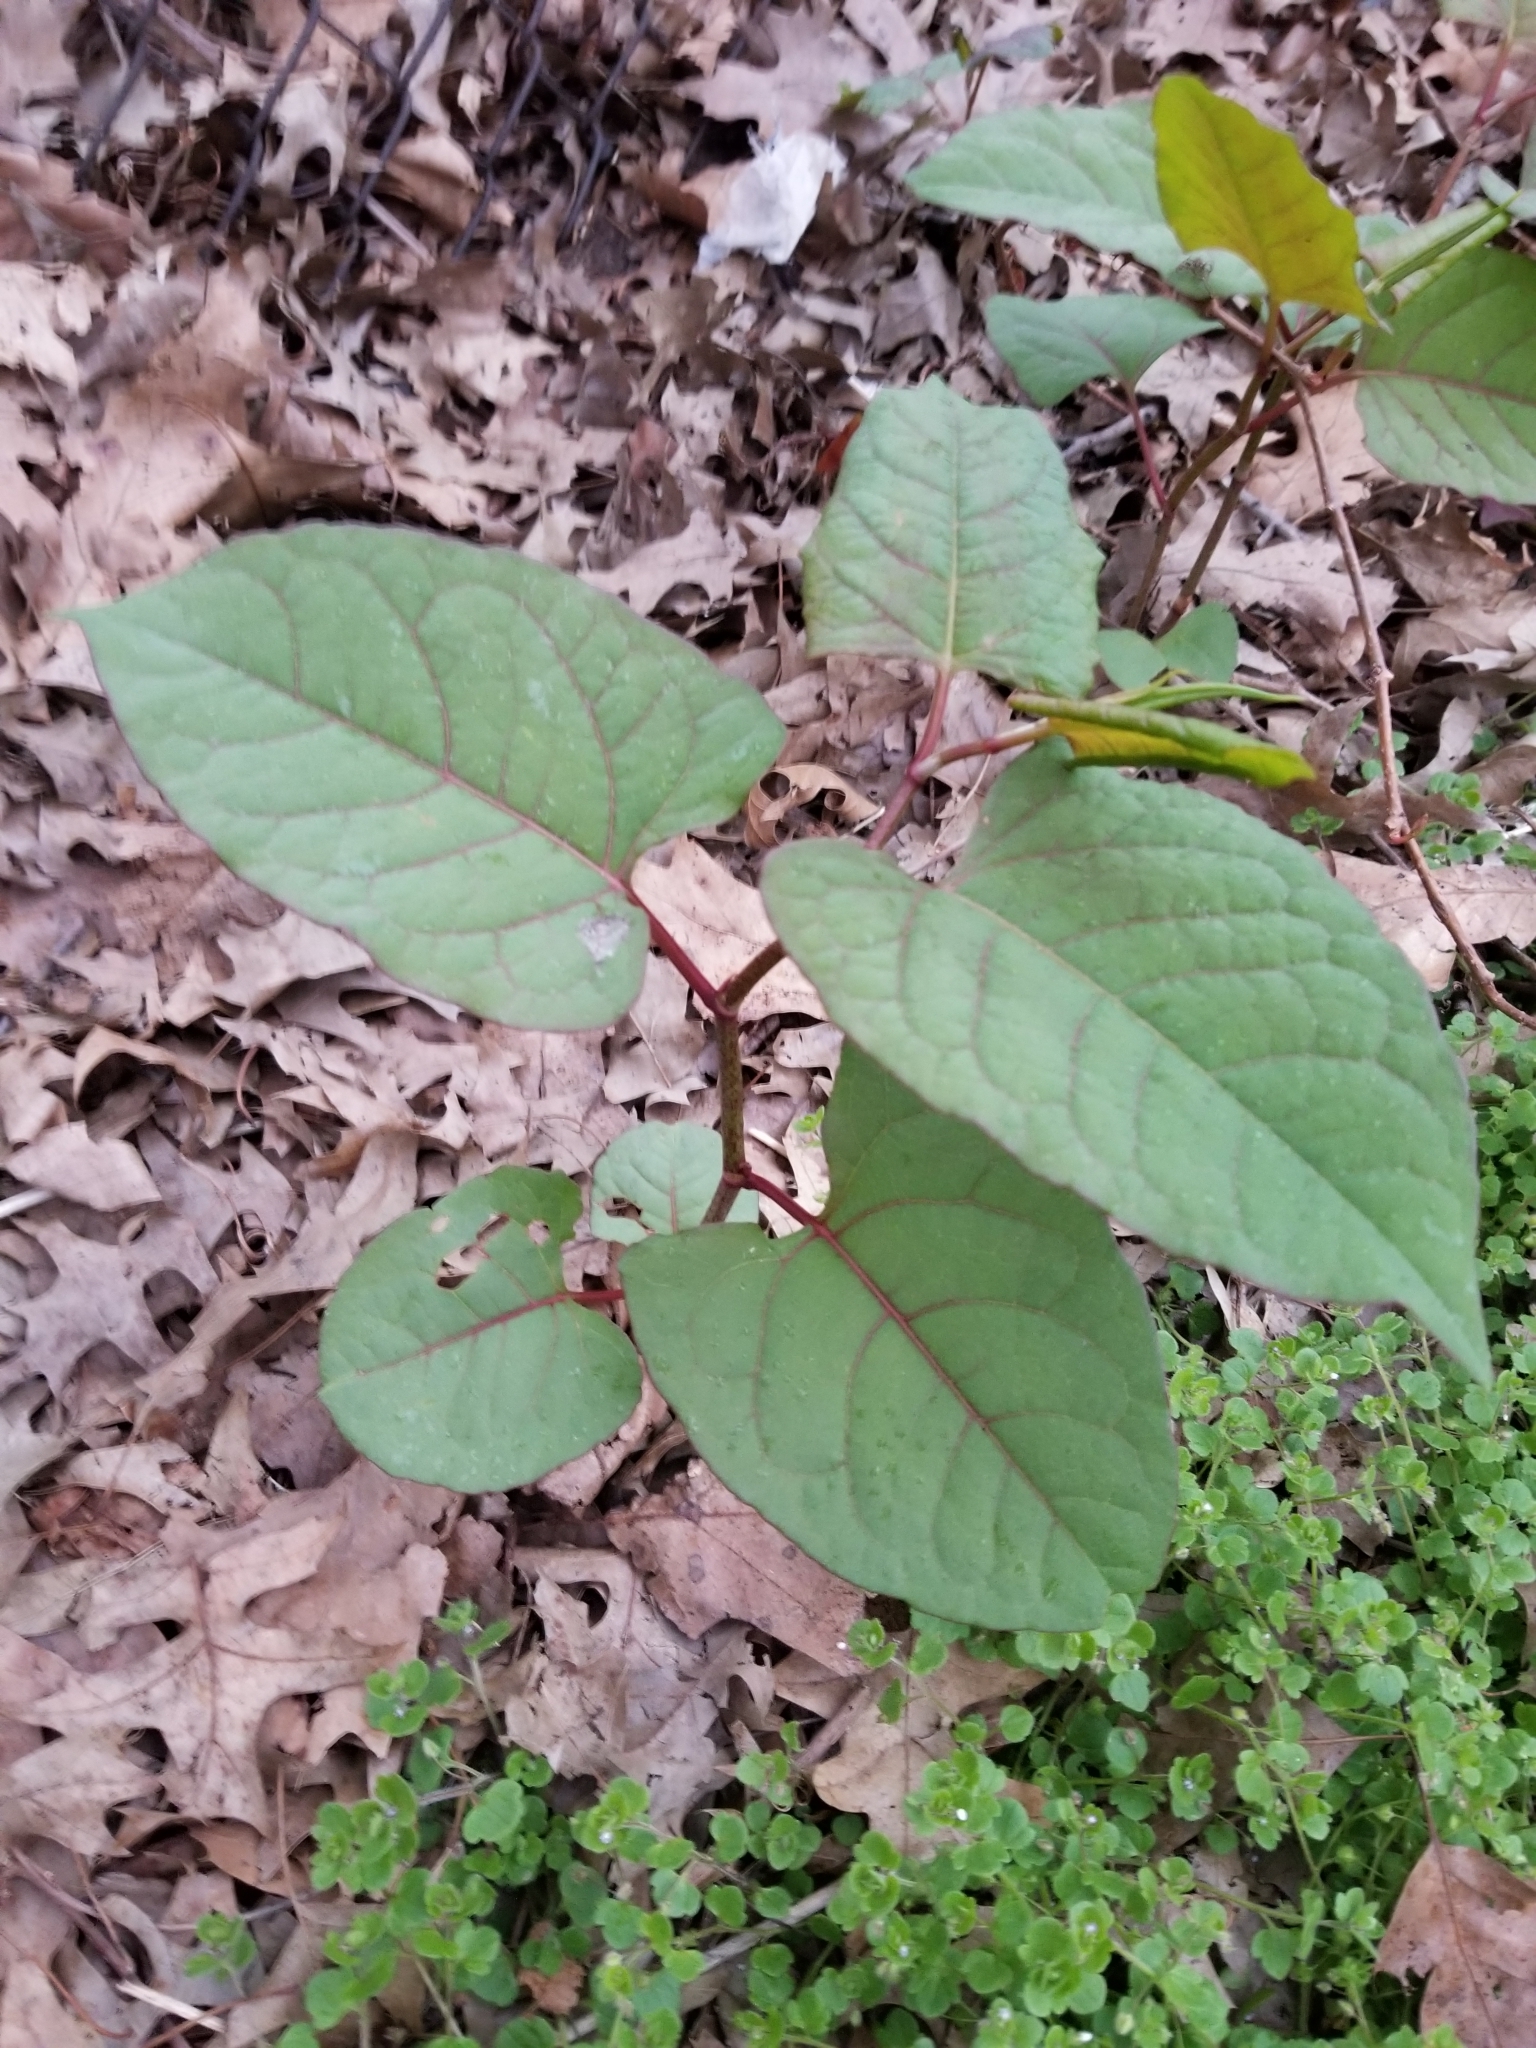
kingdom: Plantae
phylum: Tracheophyta
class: Magnoliopsida
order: Caryophyllales
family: Polygonaceae
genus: Reynoutria
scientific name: Reynoutria japonica
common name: Japanese knotweed
